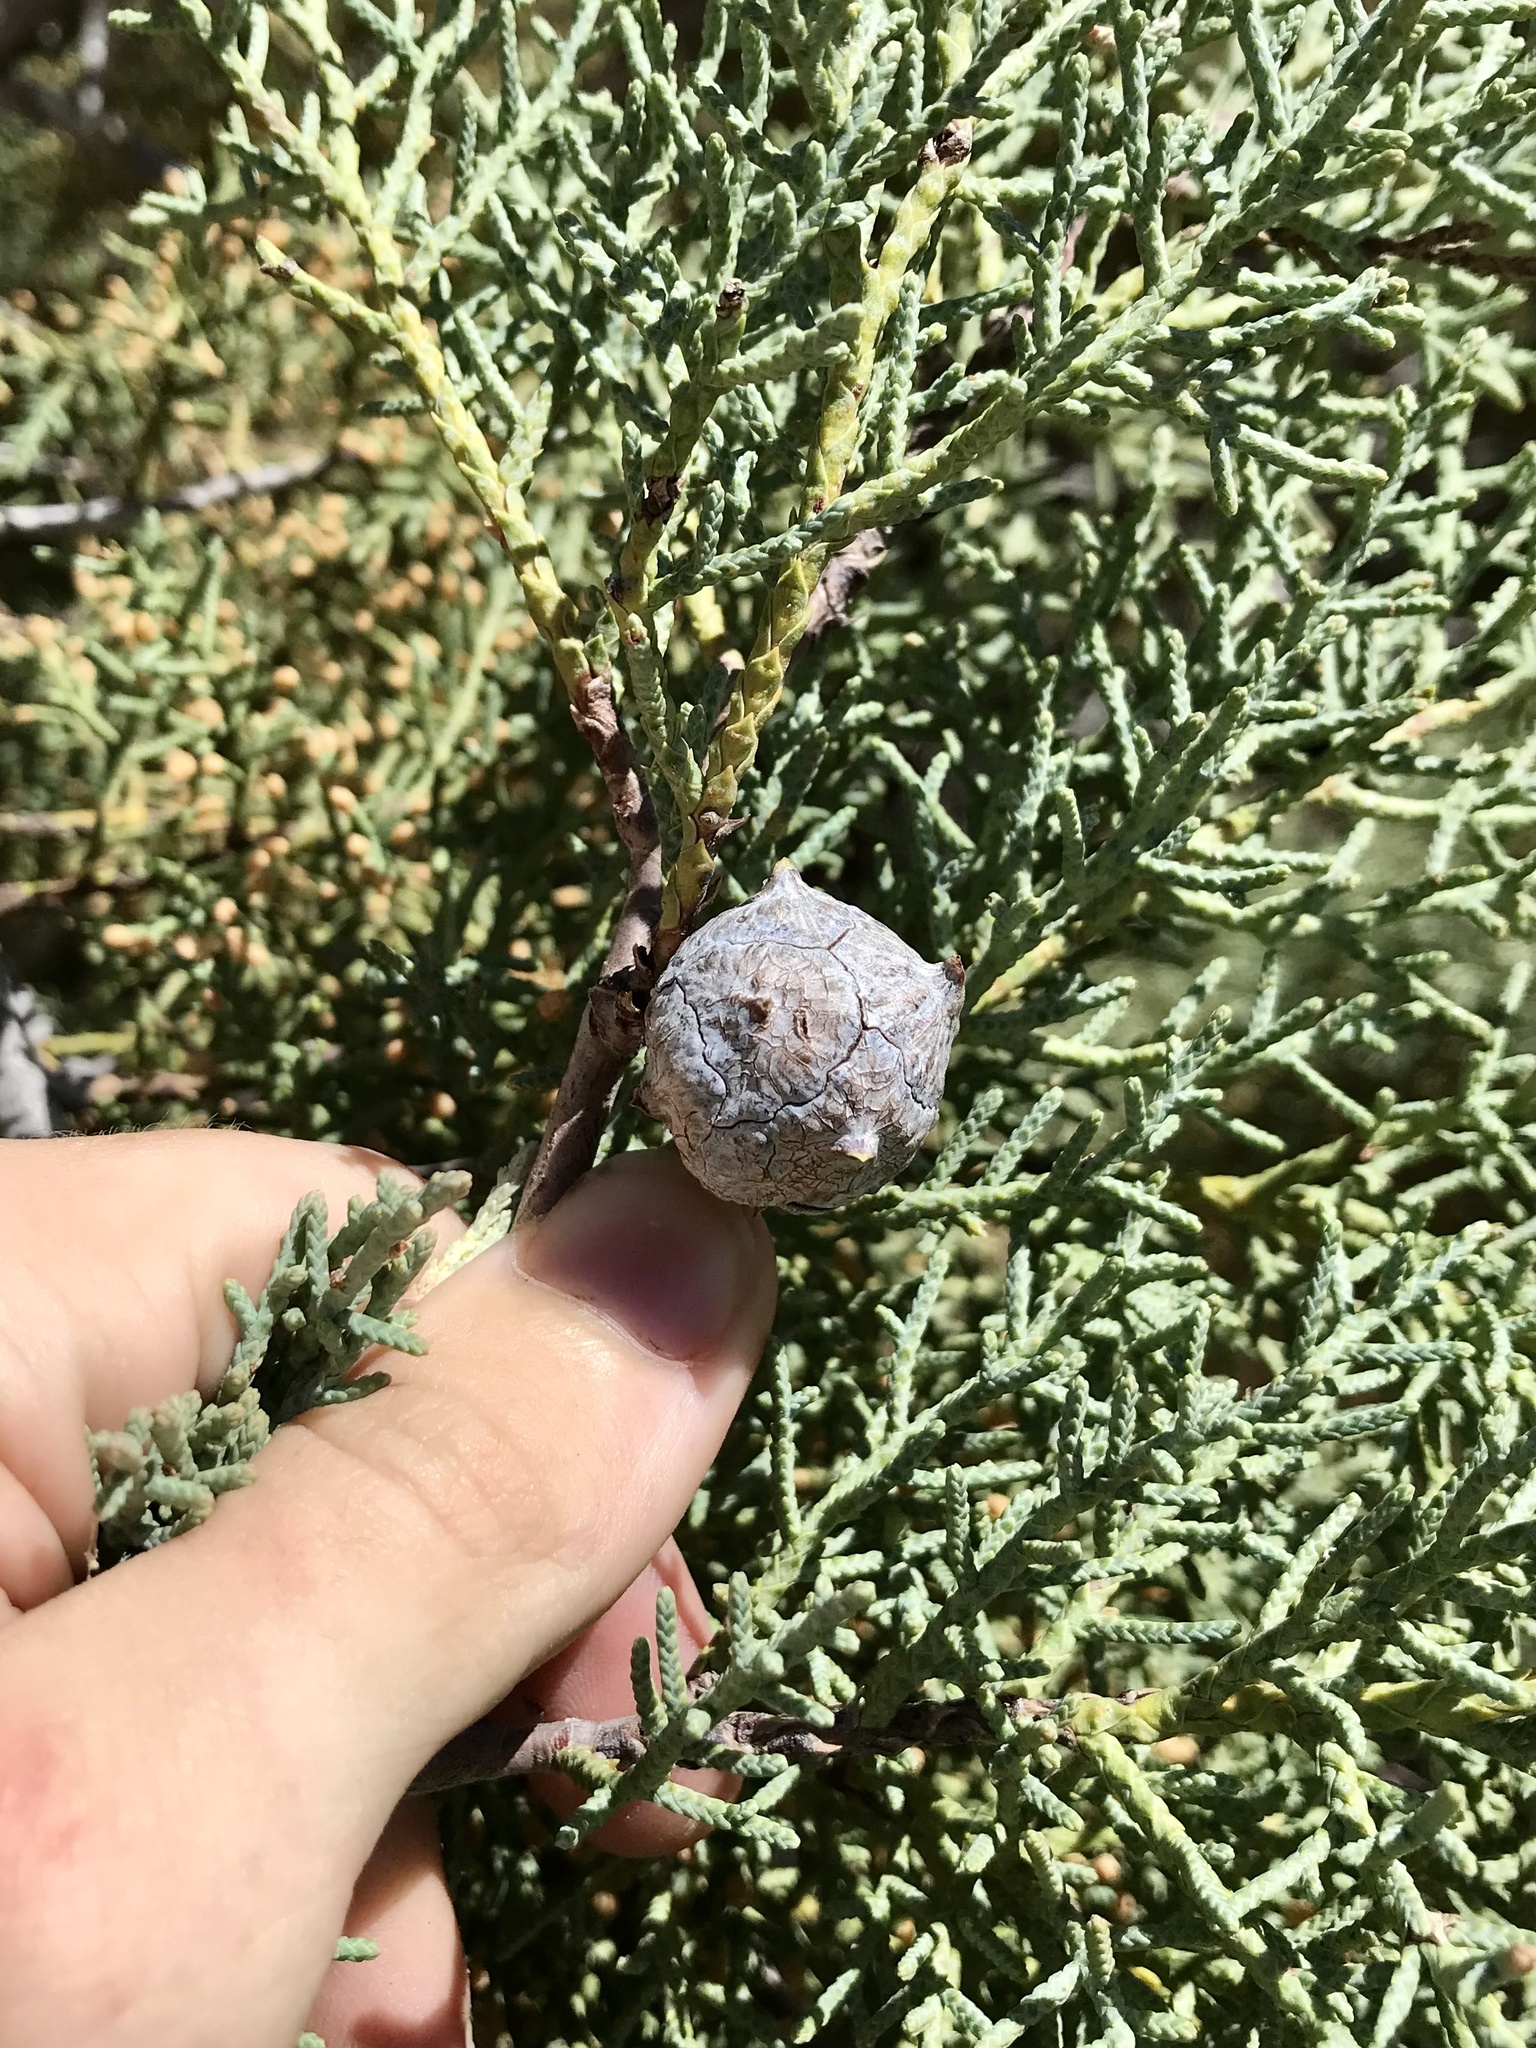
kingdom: Plantae
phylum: Tracheophyta
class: Pinopsida
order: Pinales
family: Cupressaceae
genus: Cupressus
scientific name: Cupressus arizonica
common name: Arizona cypress
